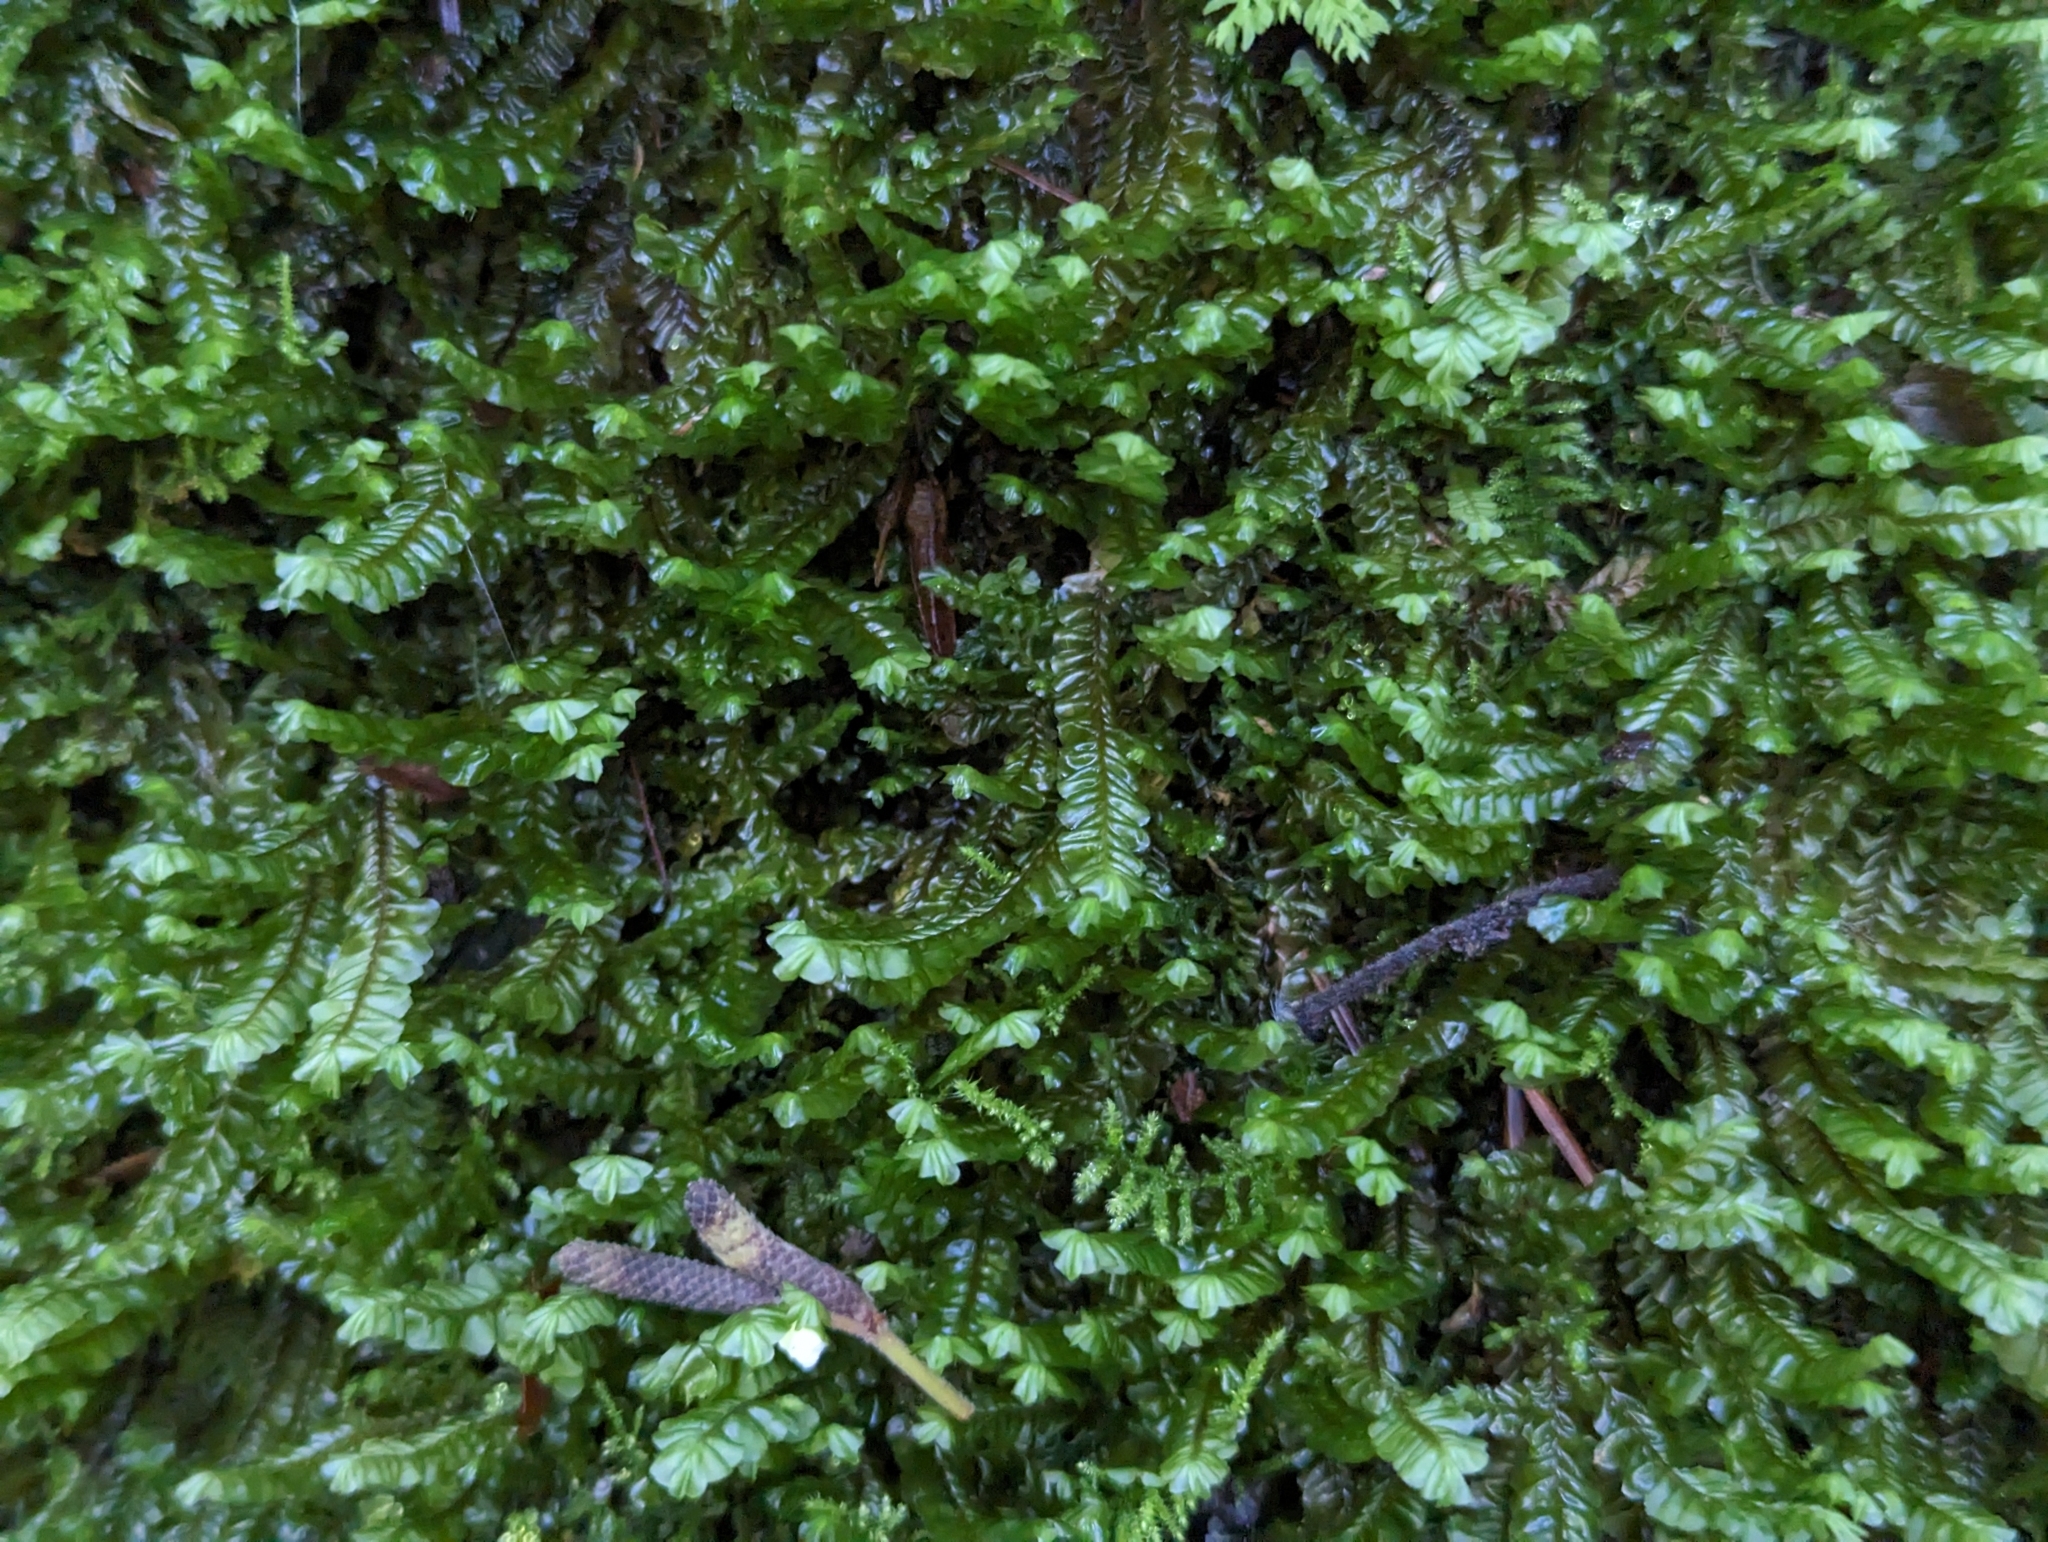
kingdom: Plantae
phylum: Marchantiophyta
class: Jungermanniopsida
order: Jungermanniales
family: Plagiochilaceae
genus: Plagiochila
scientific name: Plagiochila asplenioides
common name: Greater featherwort
